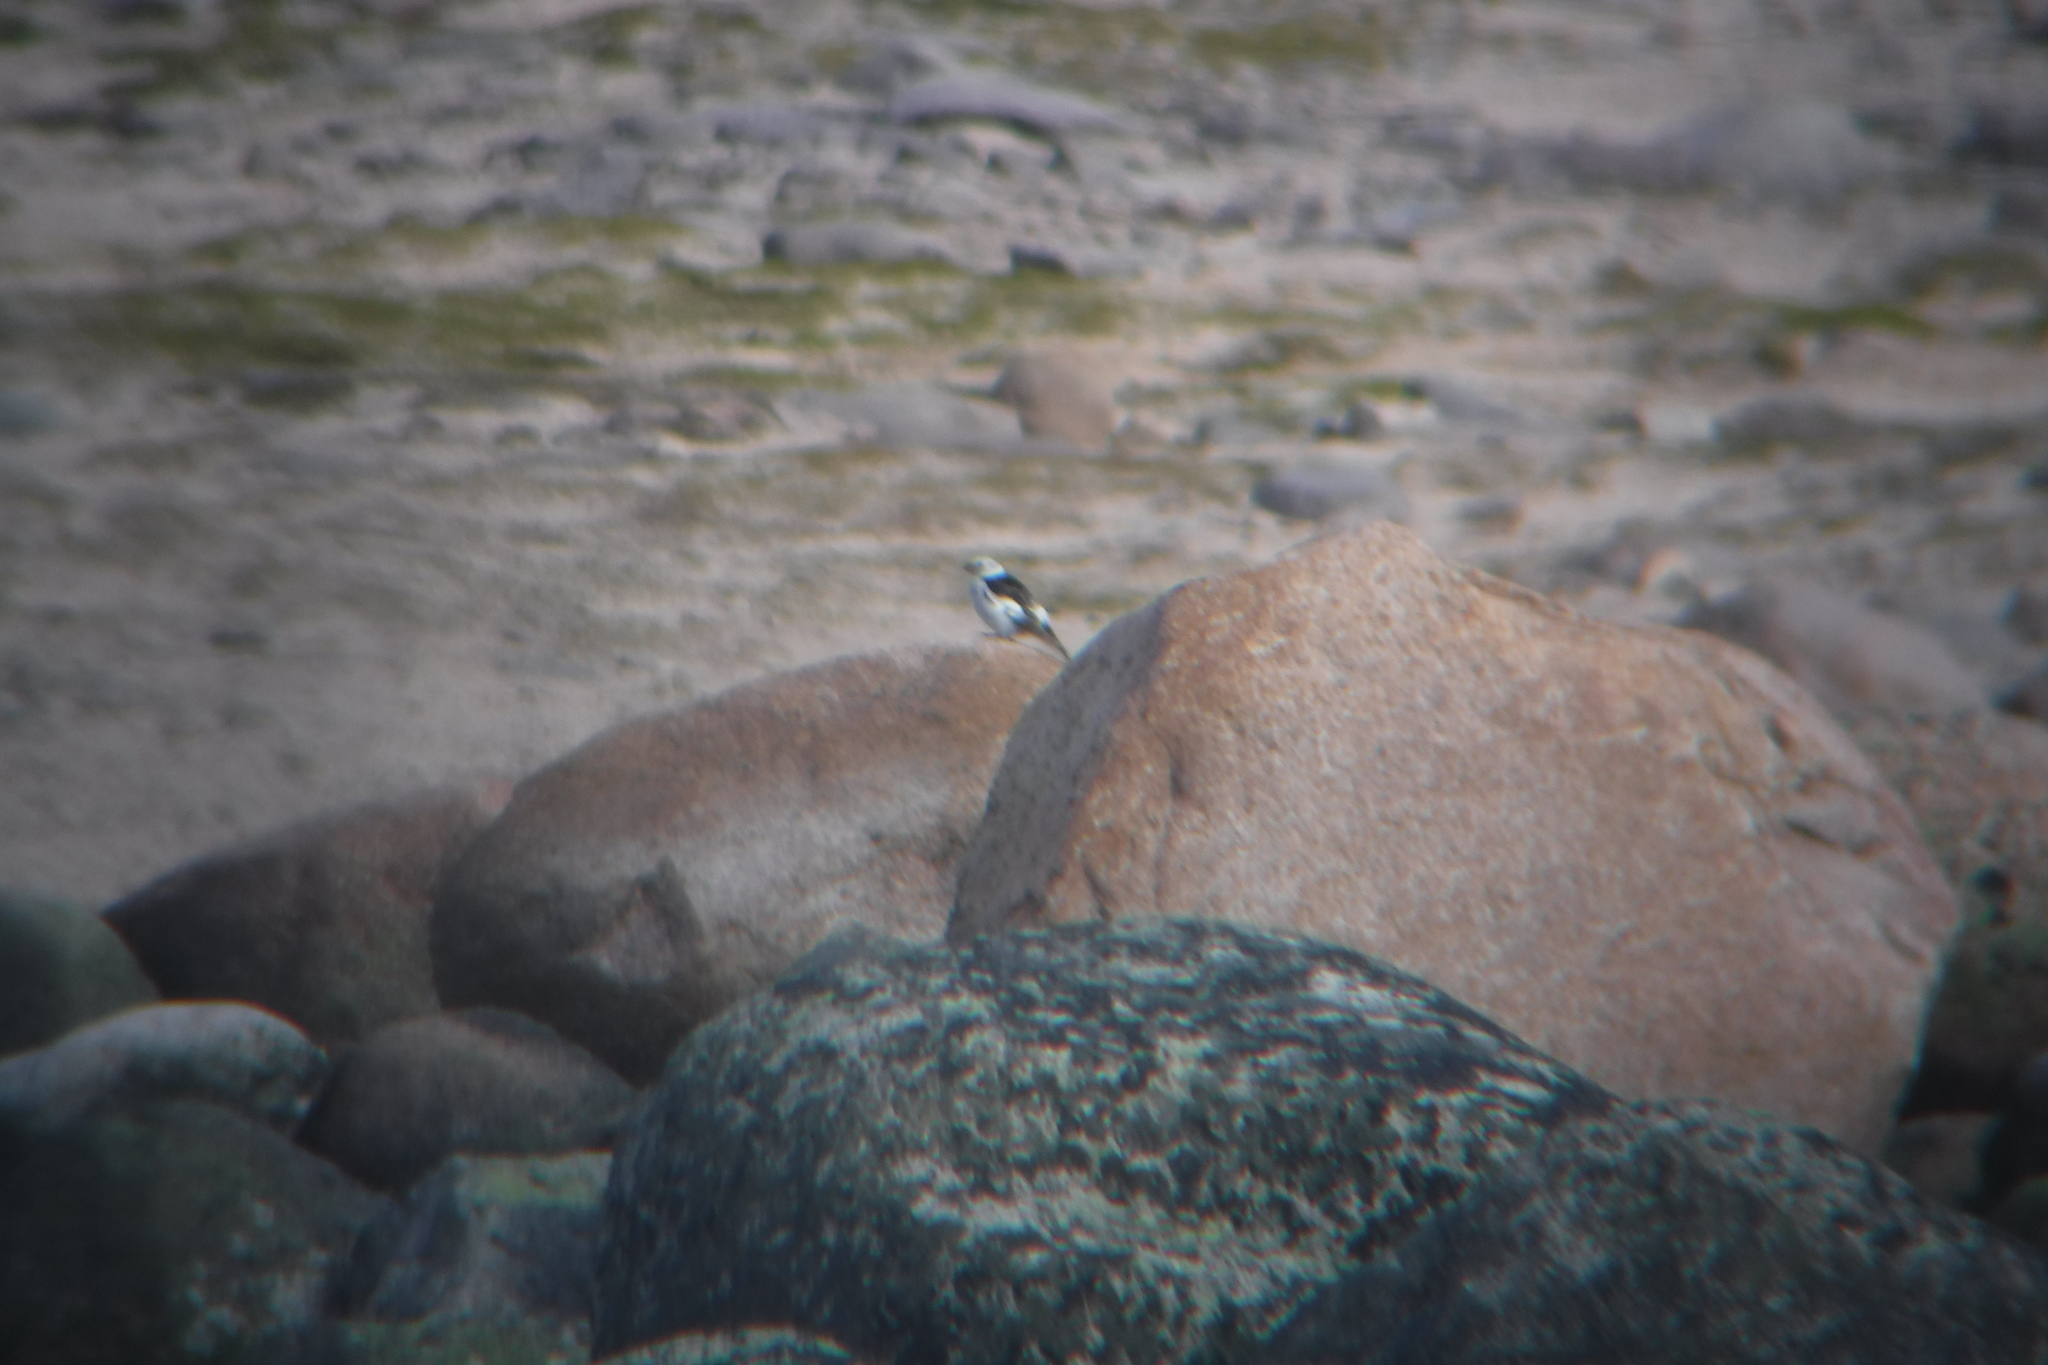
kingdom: Animalia
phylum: Chordata
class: Aves
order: Passeriformes
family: Calcariidae
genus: Plectrophenax
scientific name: Plectrophenax nivalis
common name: Snow bunting
